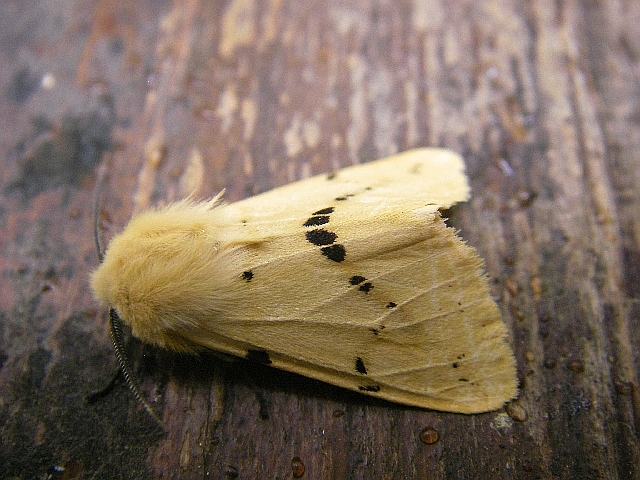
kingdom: Animalia
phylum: Arthropoda
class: Insecta
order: Lepidoptera
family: Erebidae
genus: Spilarctia
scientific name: Spilarctia lutea
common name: Buff ermine
